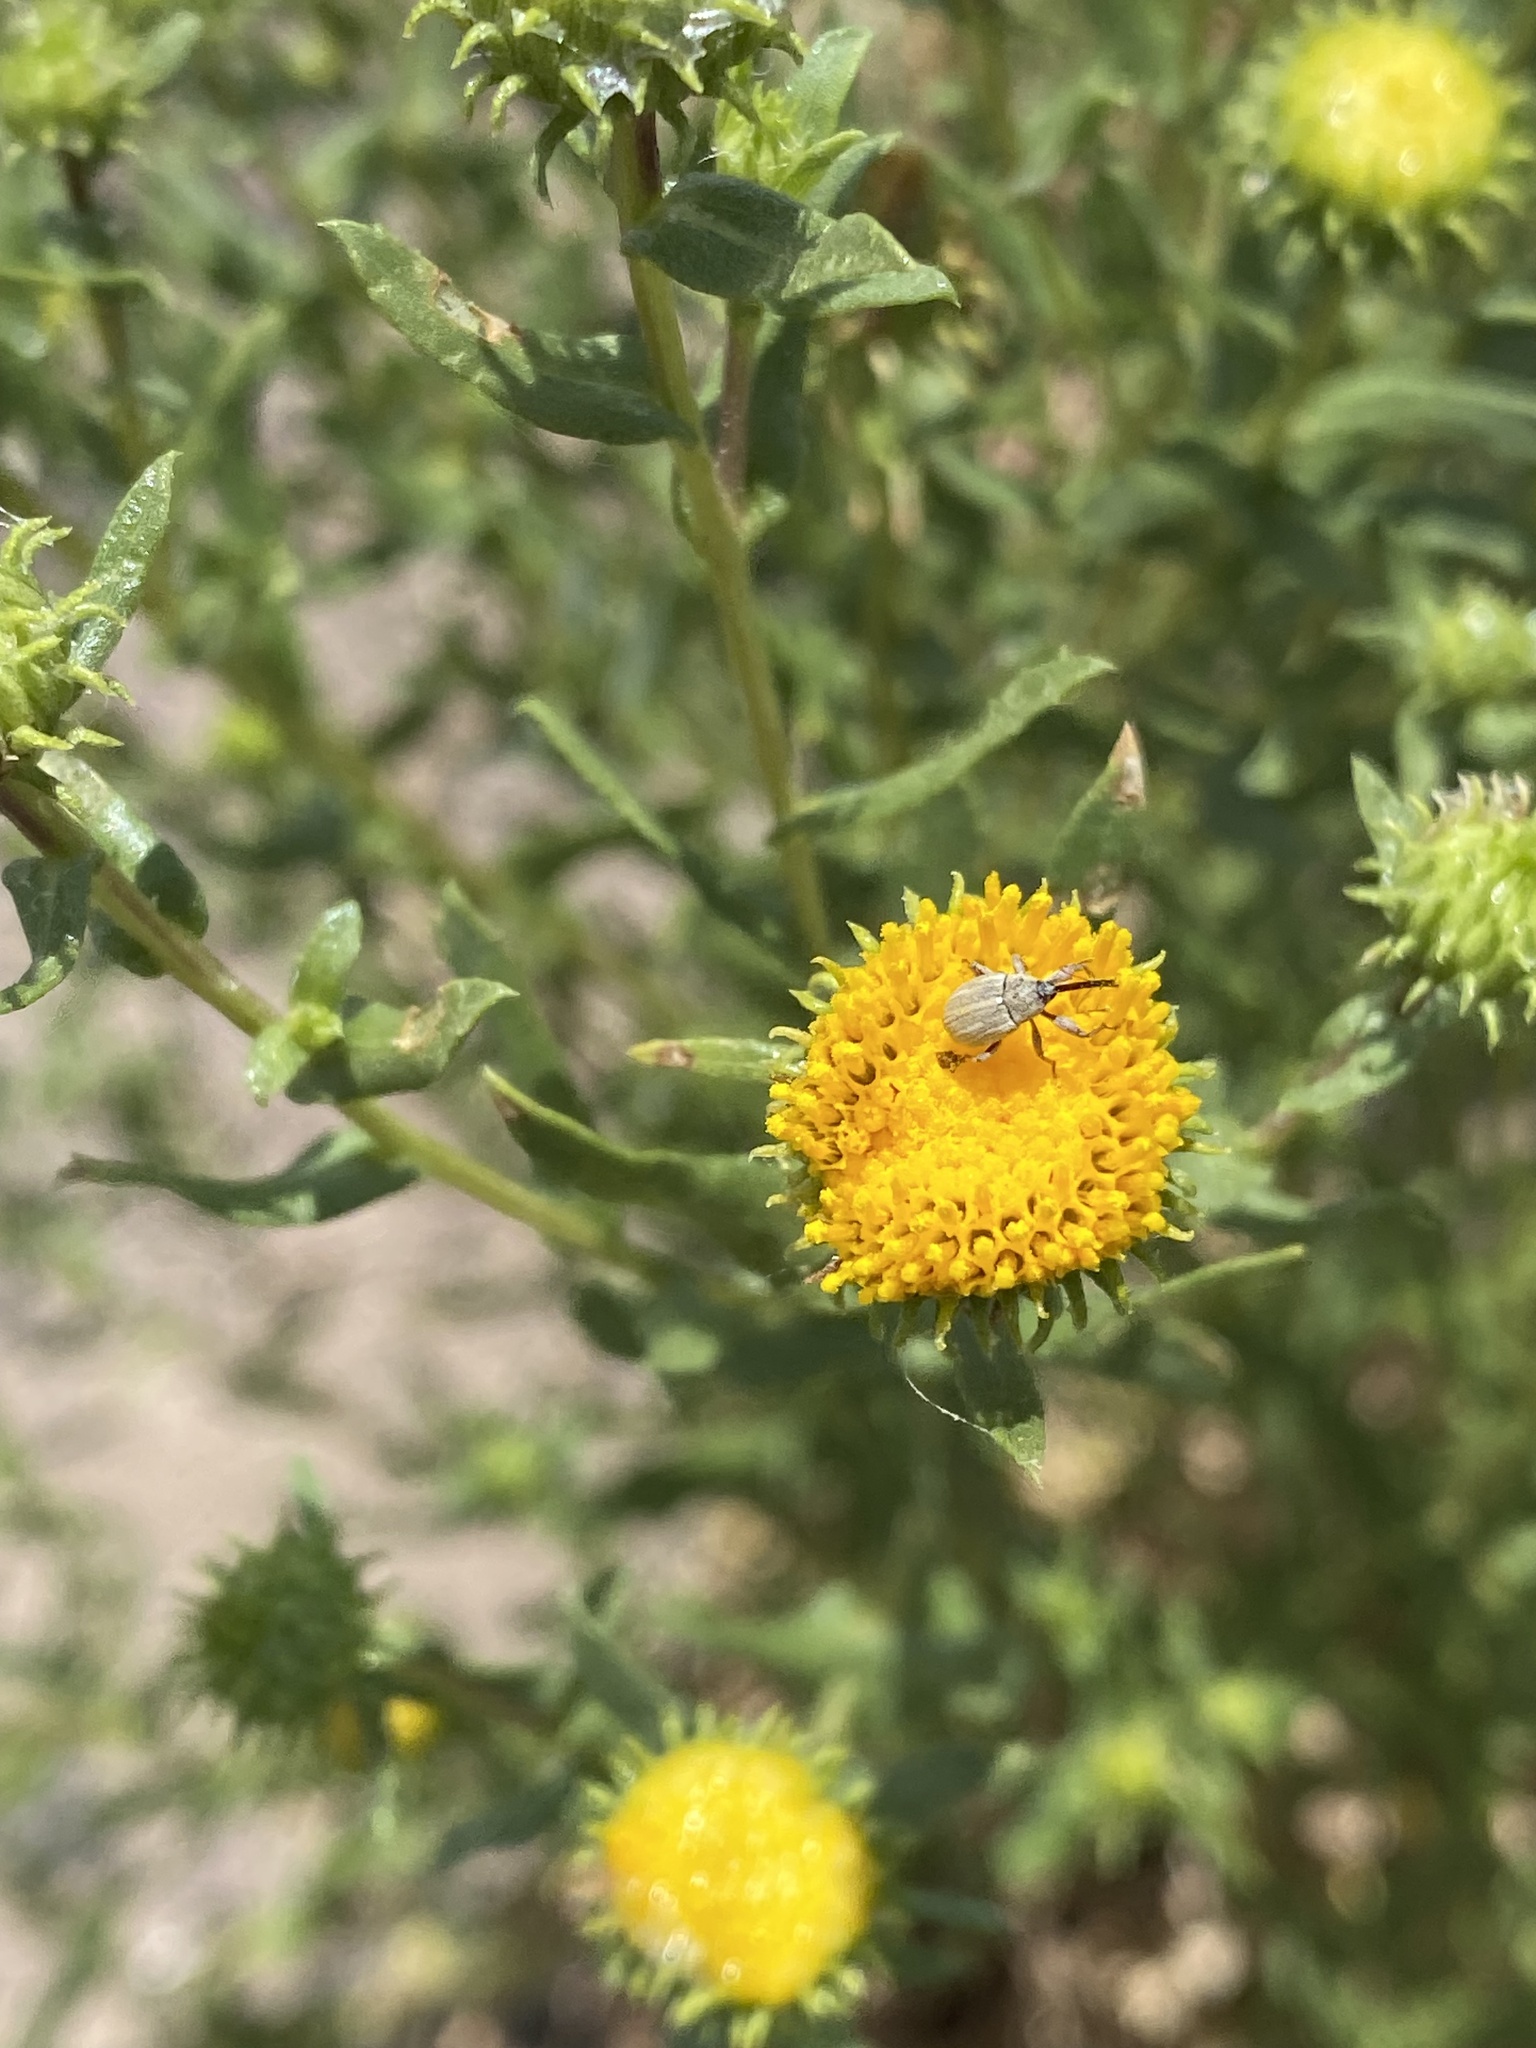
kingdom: Plantae
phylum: Tracheophyta
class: Magnoliopsida
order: Asterales
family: Asteraceae
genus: Grindelia
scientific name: Grindelia nuda
